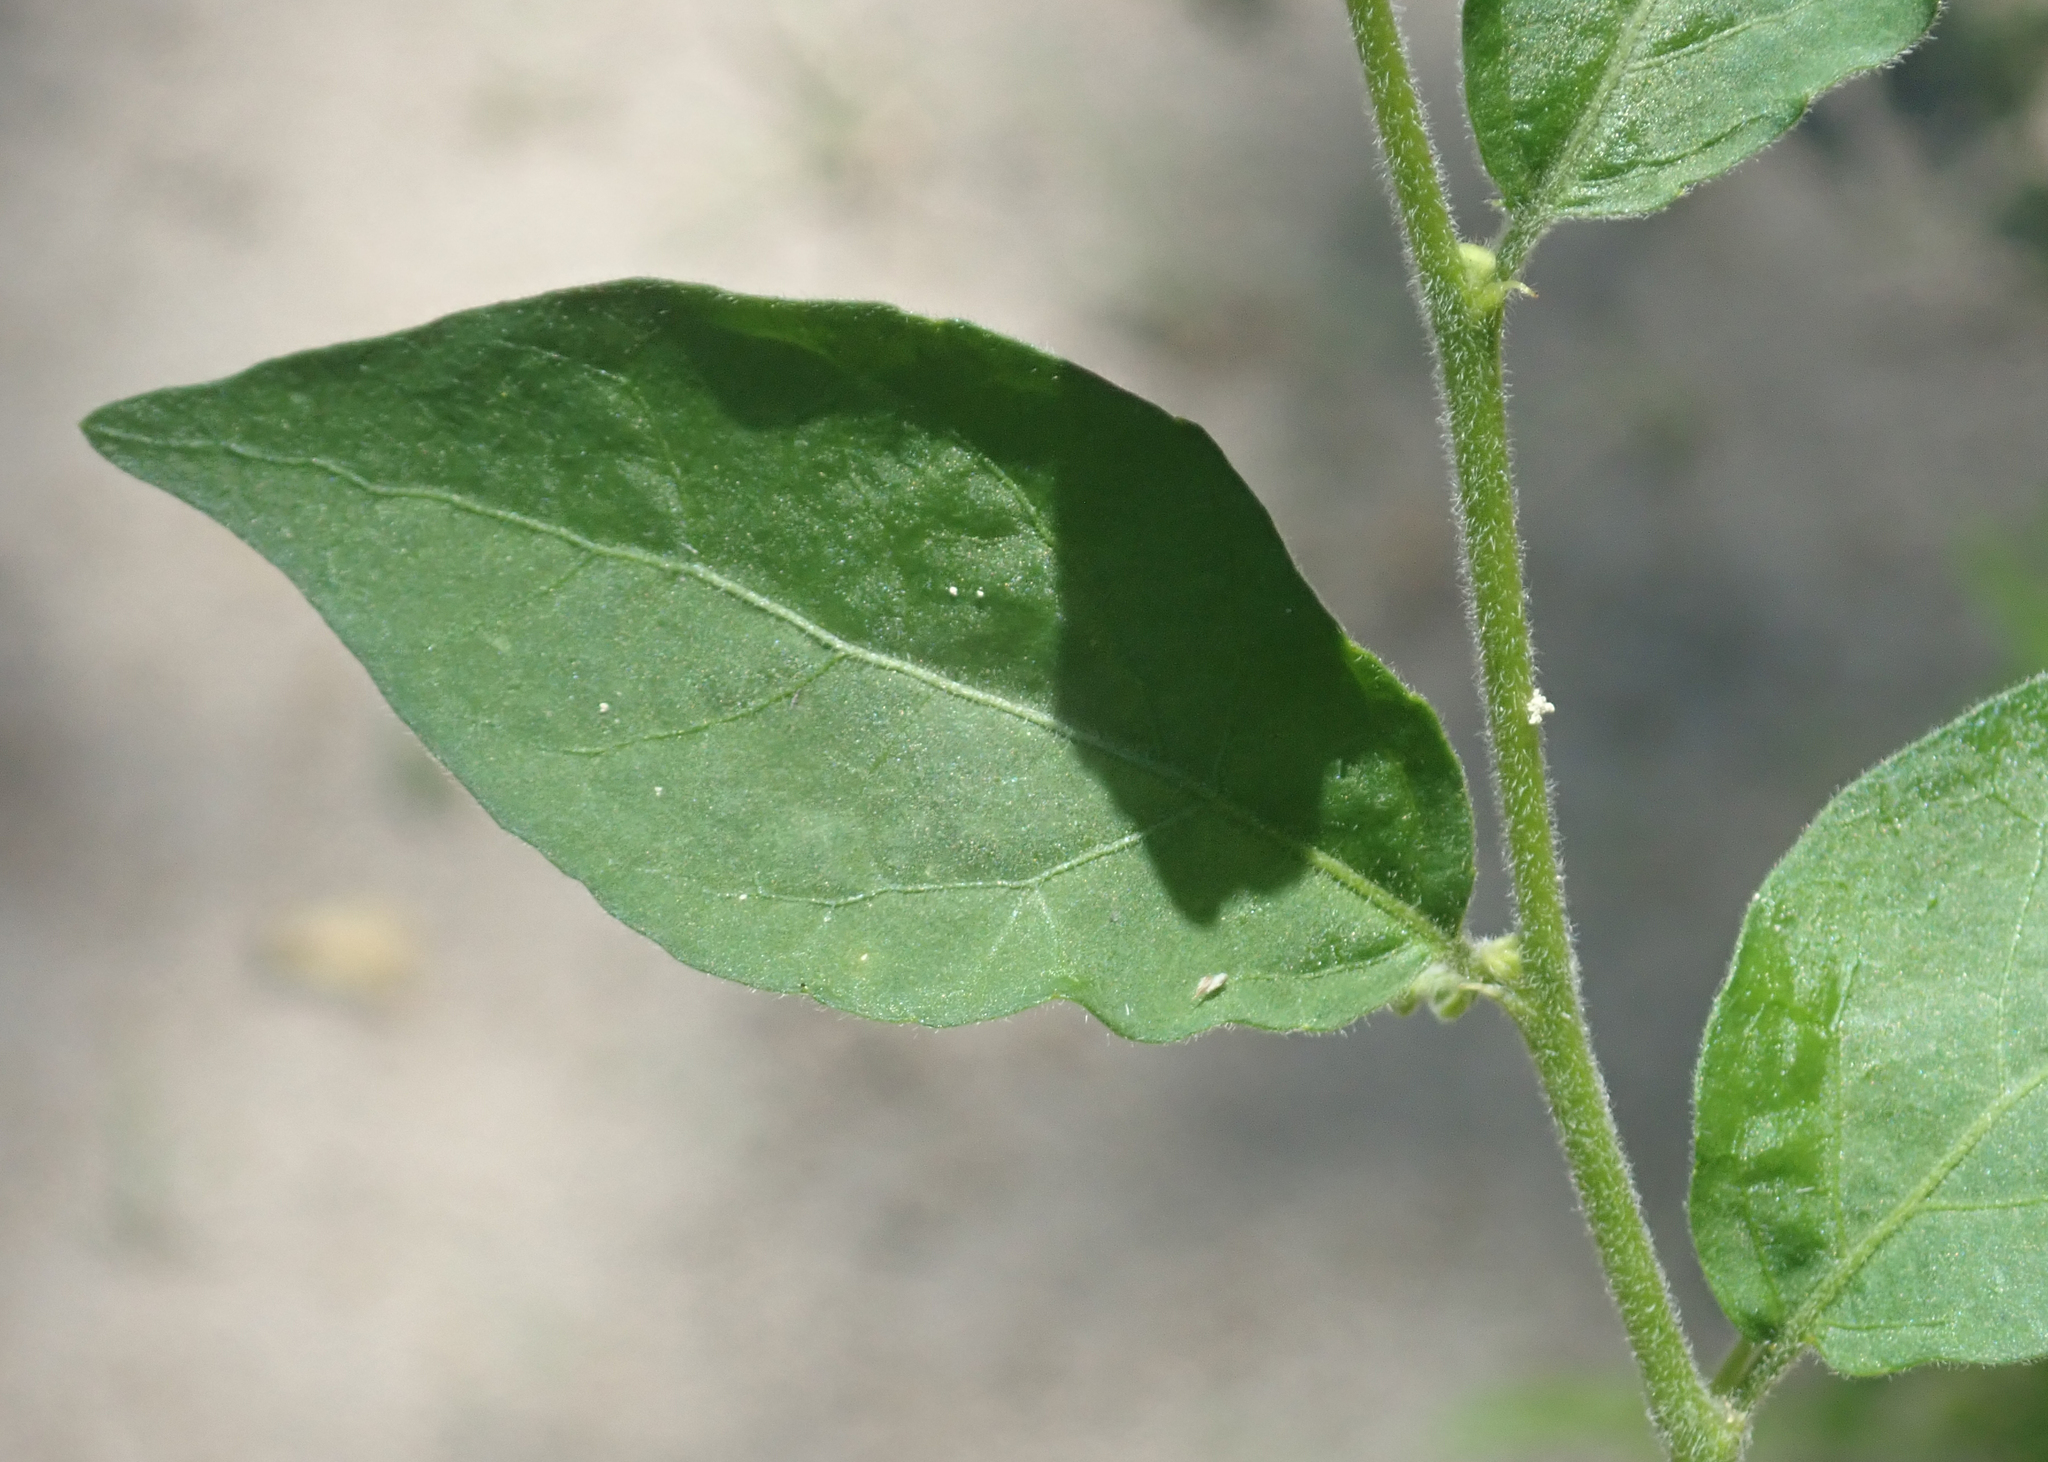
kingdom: Plantae
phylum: Tracheophyta
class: Magnoliopsida
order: Malpighiales
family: Euphorbiaceae
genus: Erythrococca
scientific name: Erythrococca menyharthii
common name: Northern red-berry
